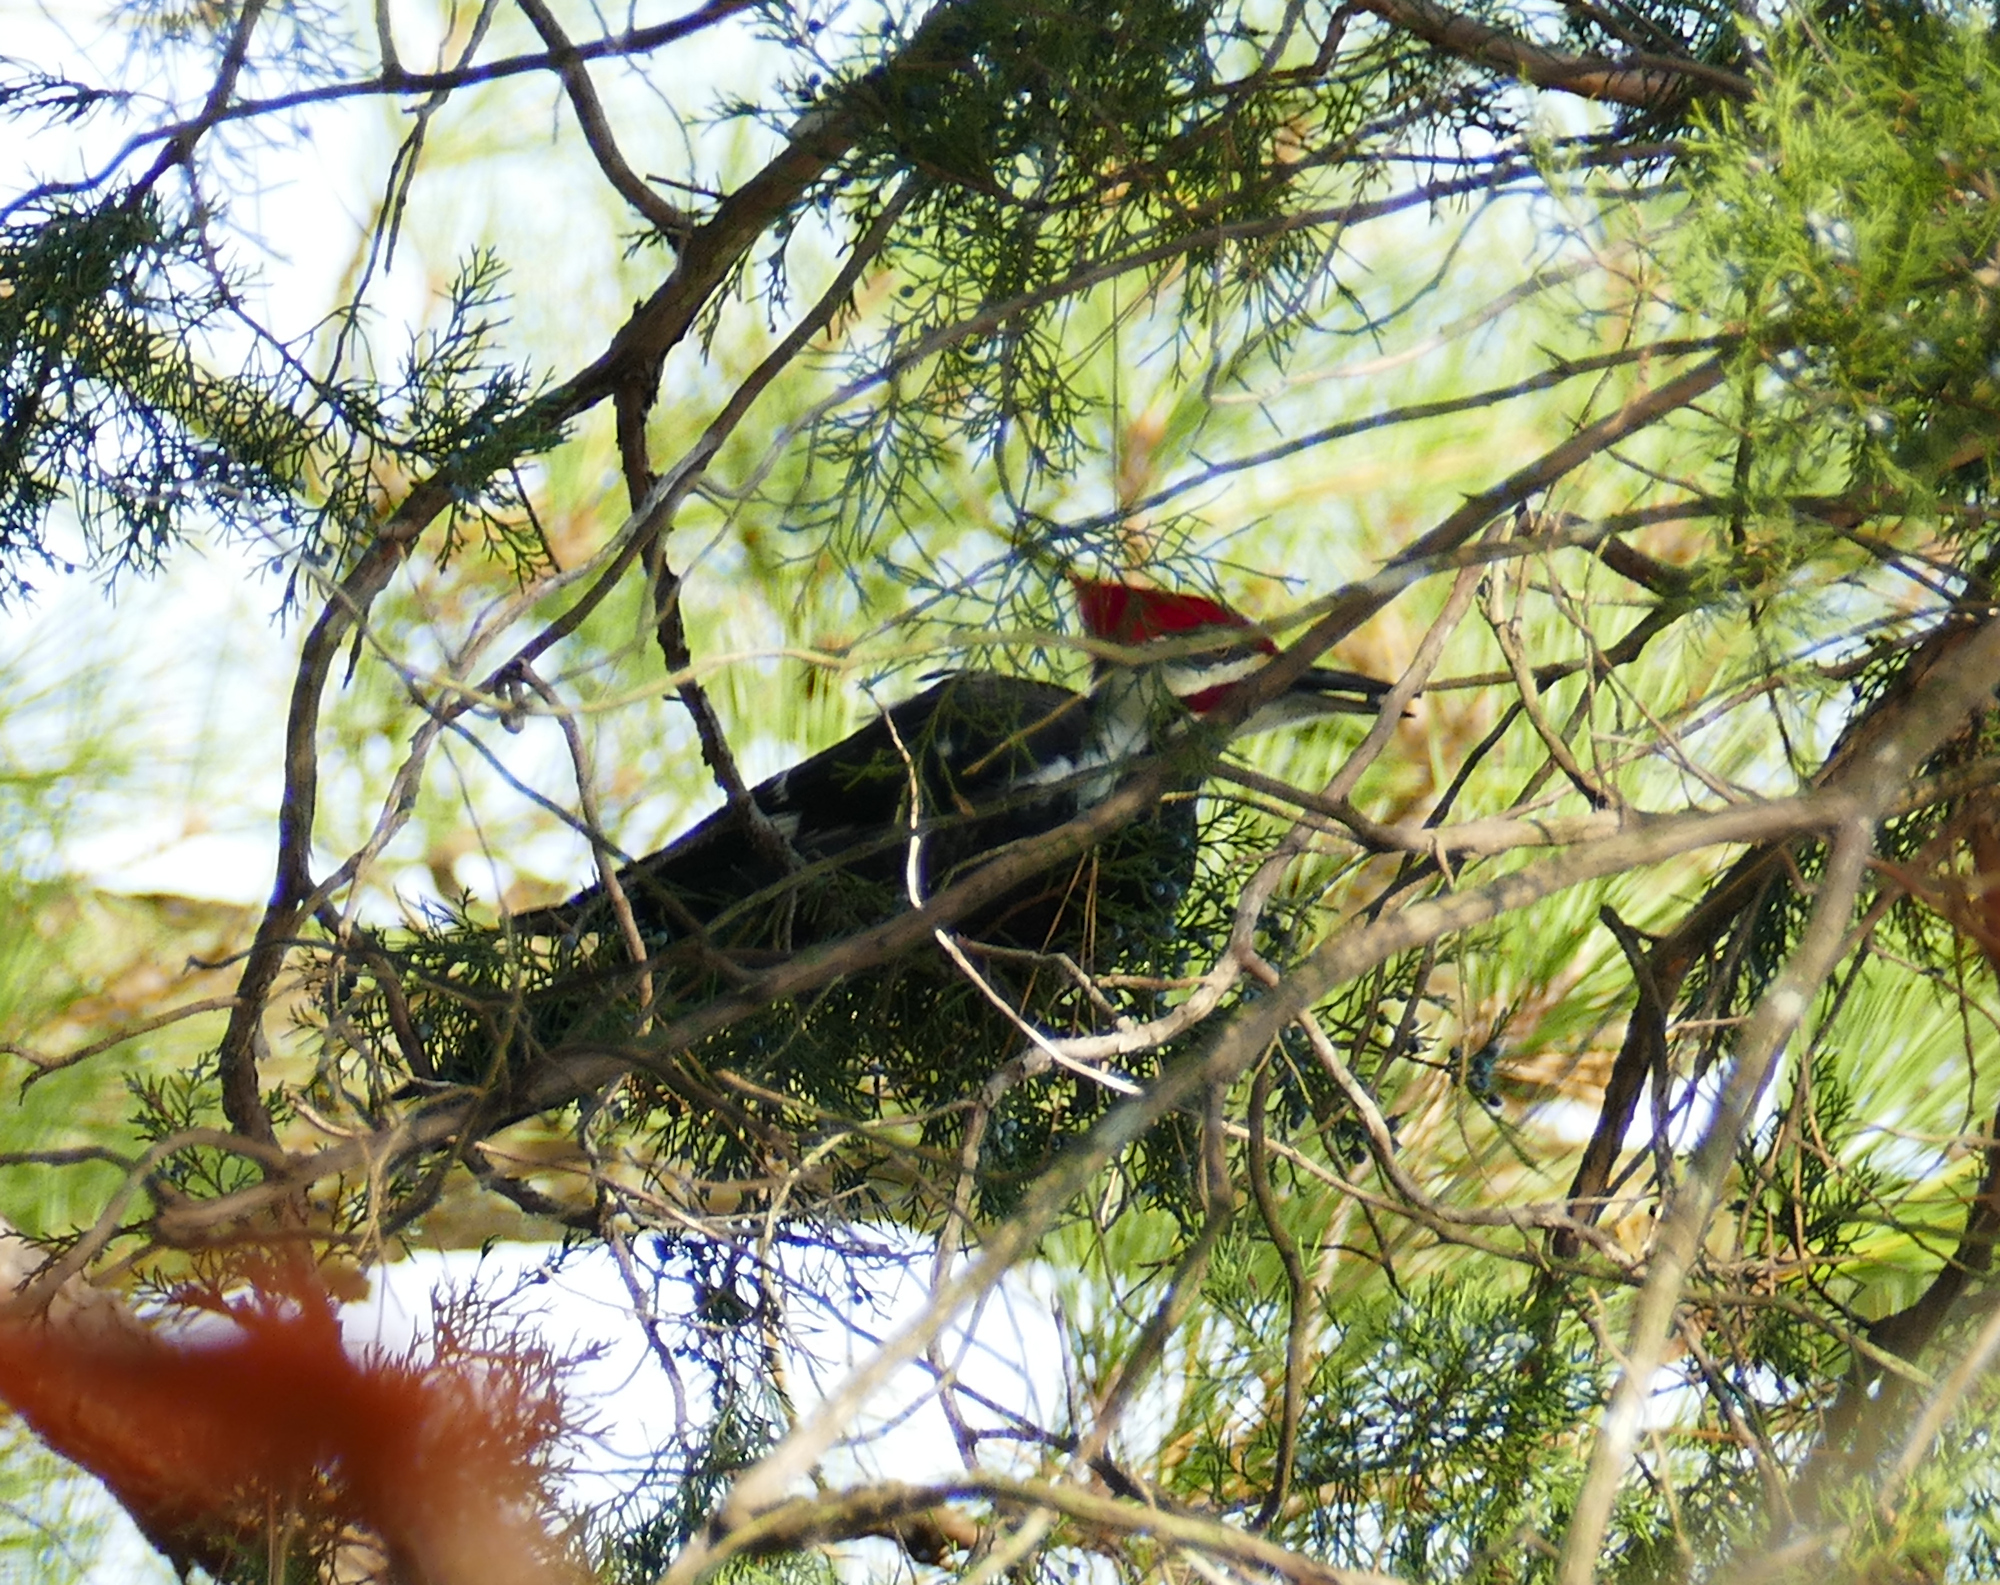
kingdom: Animalia
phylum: Chordata
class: Aves
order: Piciformes
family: Picidae
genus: Dryocopus
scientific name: Dryocopus pileatus
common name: Pileated woodpecker
